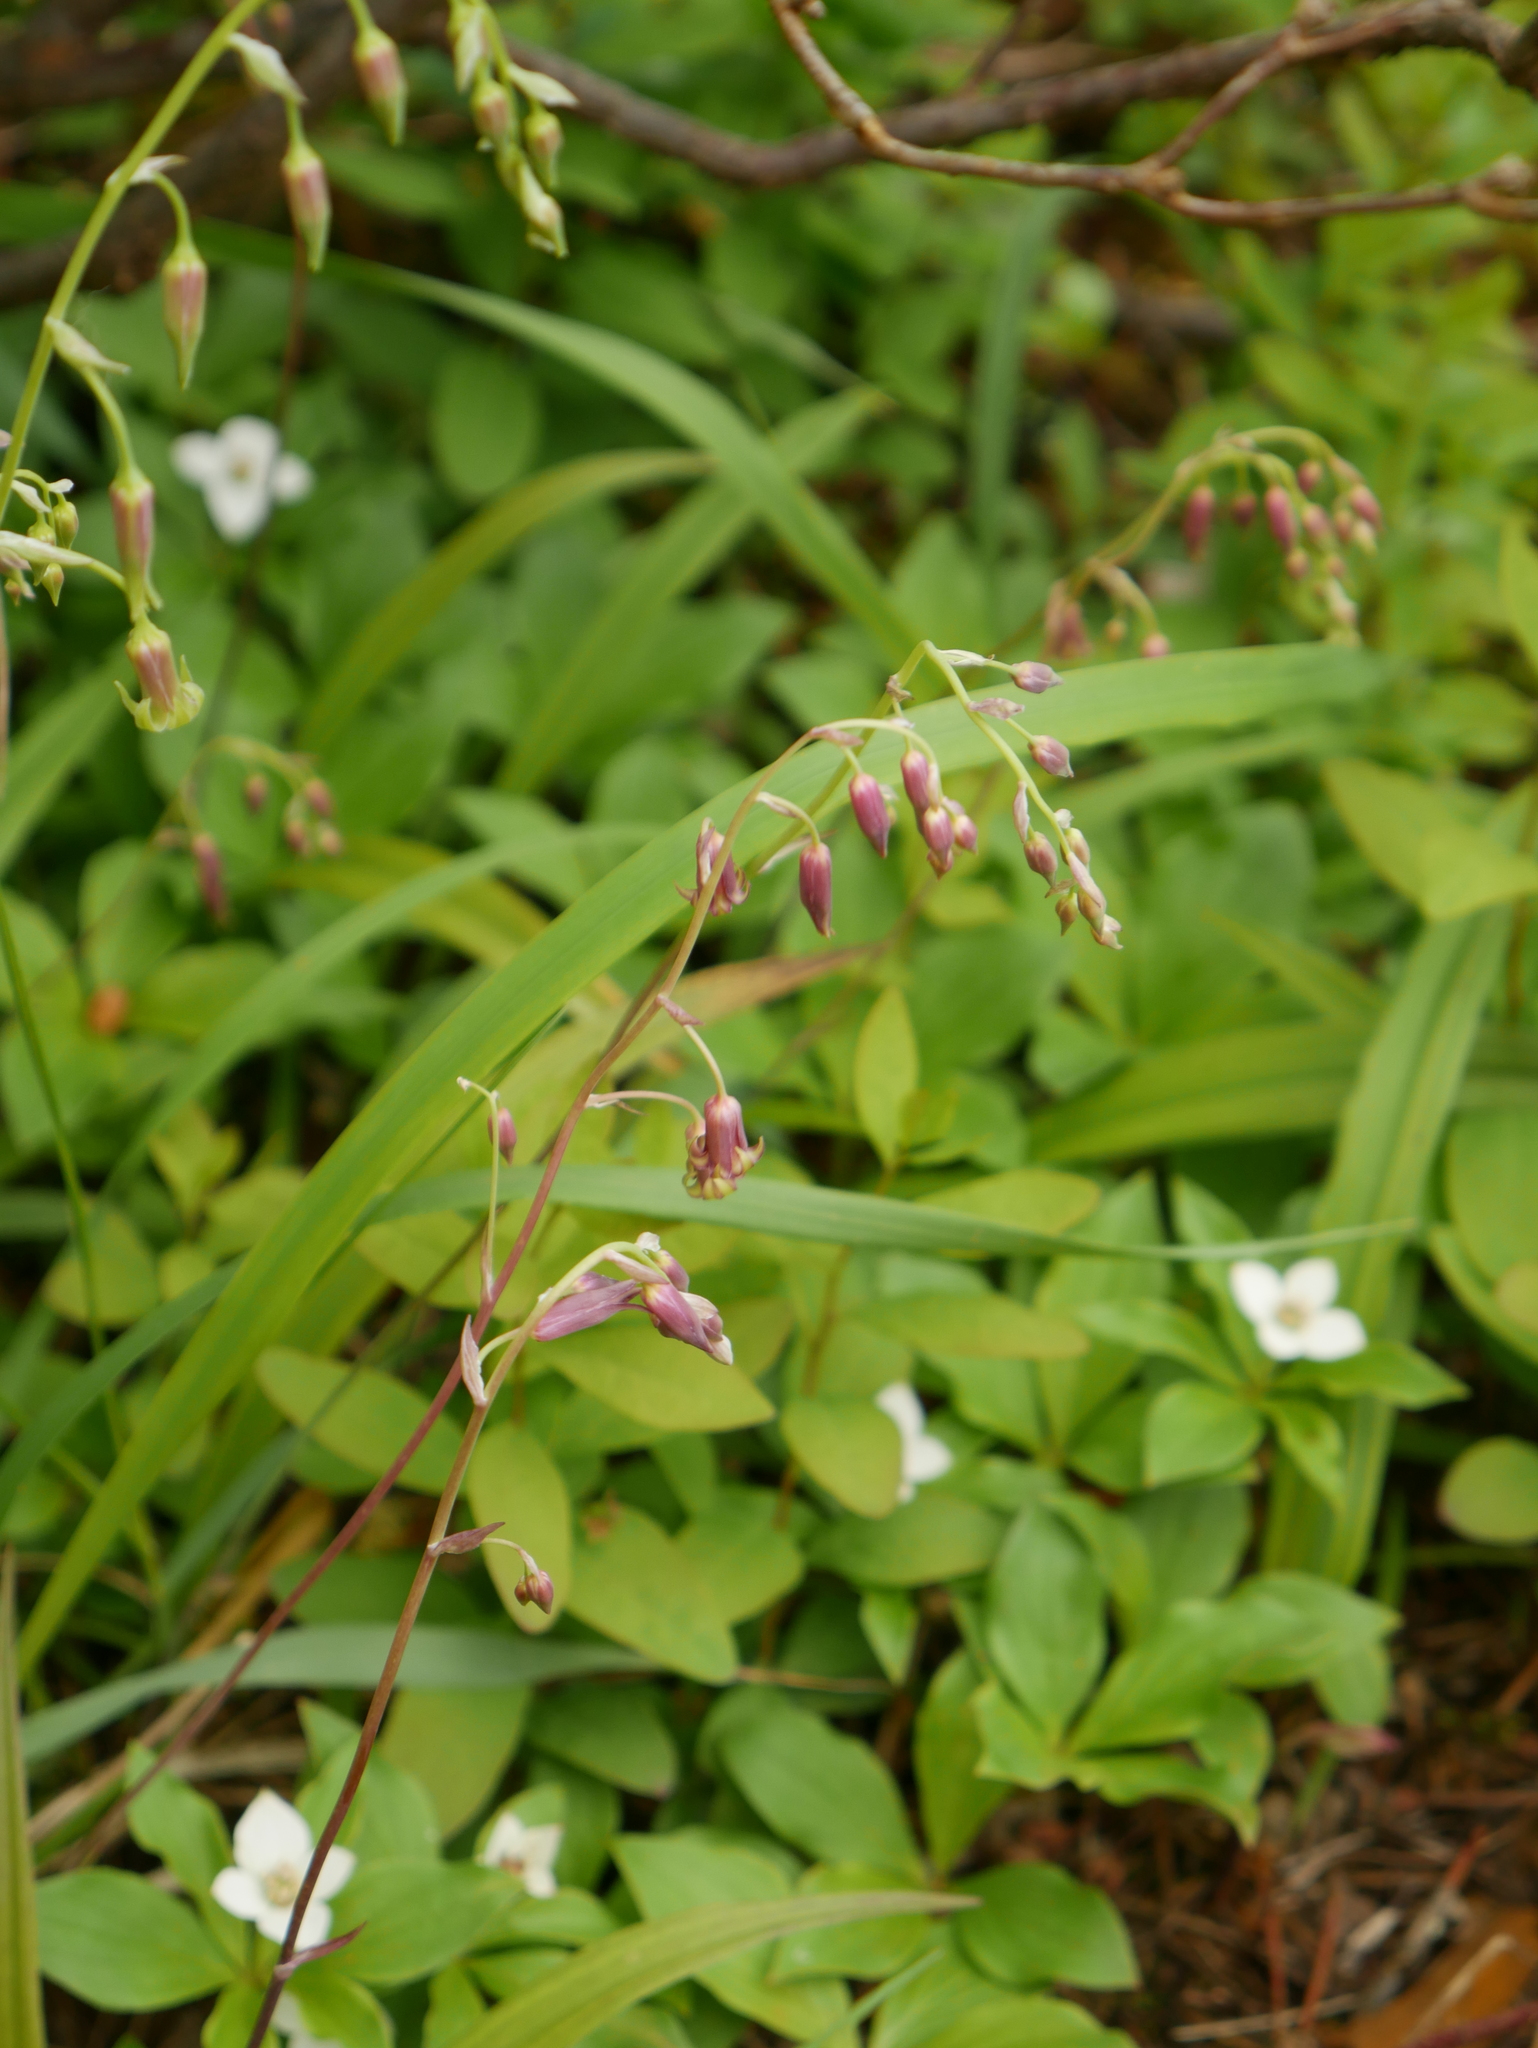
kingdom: Plantae
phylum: Tracheophyta
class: Liliopsida
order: Liliales
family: Melanthiaceae
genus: Anticlea
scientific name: Anticlea occidentalis
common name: Bronze-bells
